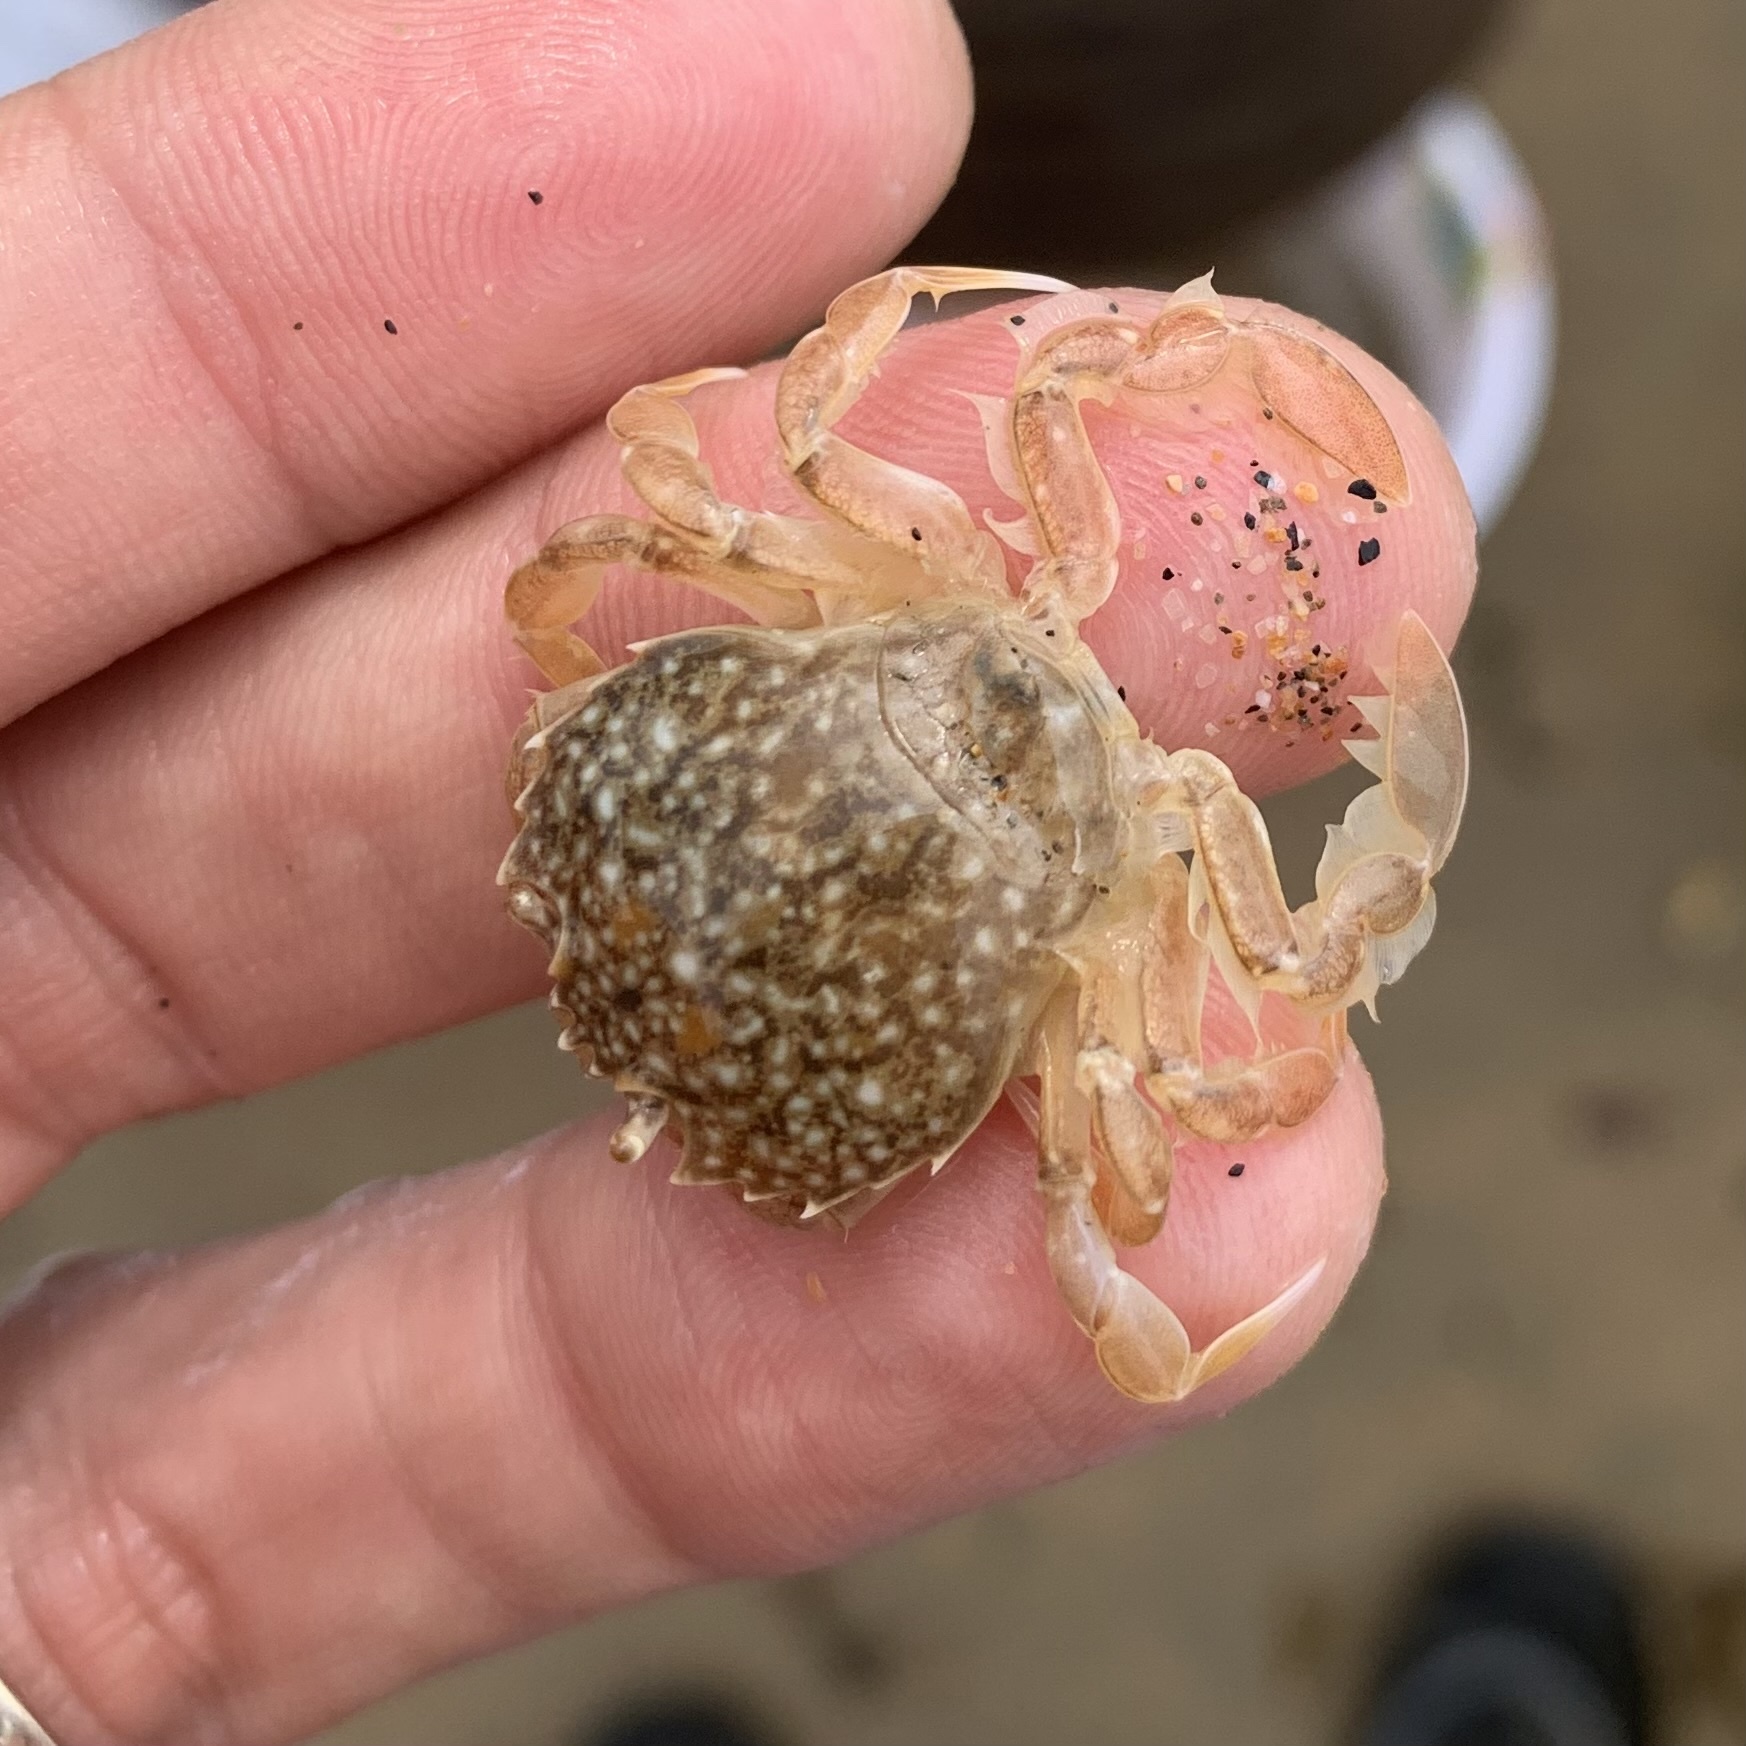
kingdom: Animalia
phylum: Arthropoda
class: Malacostraca
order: Decapoda
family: Carcinidae
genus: Portumnus
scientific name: Portumnus latipes
